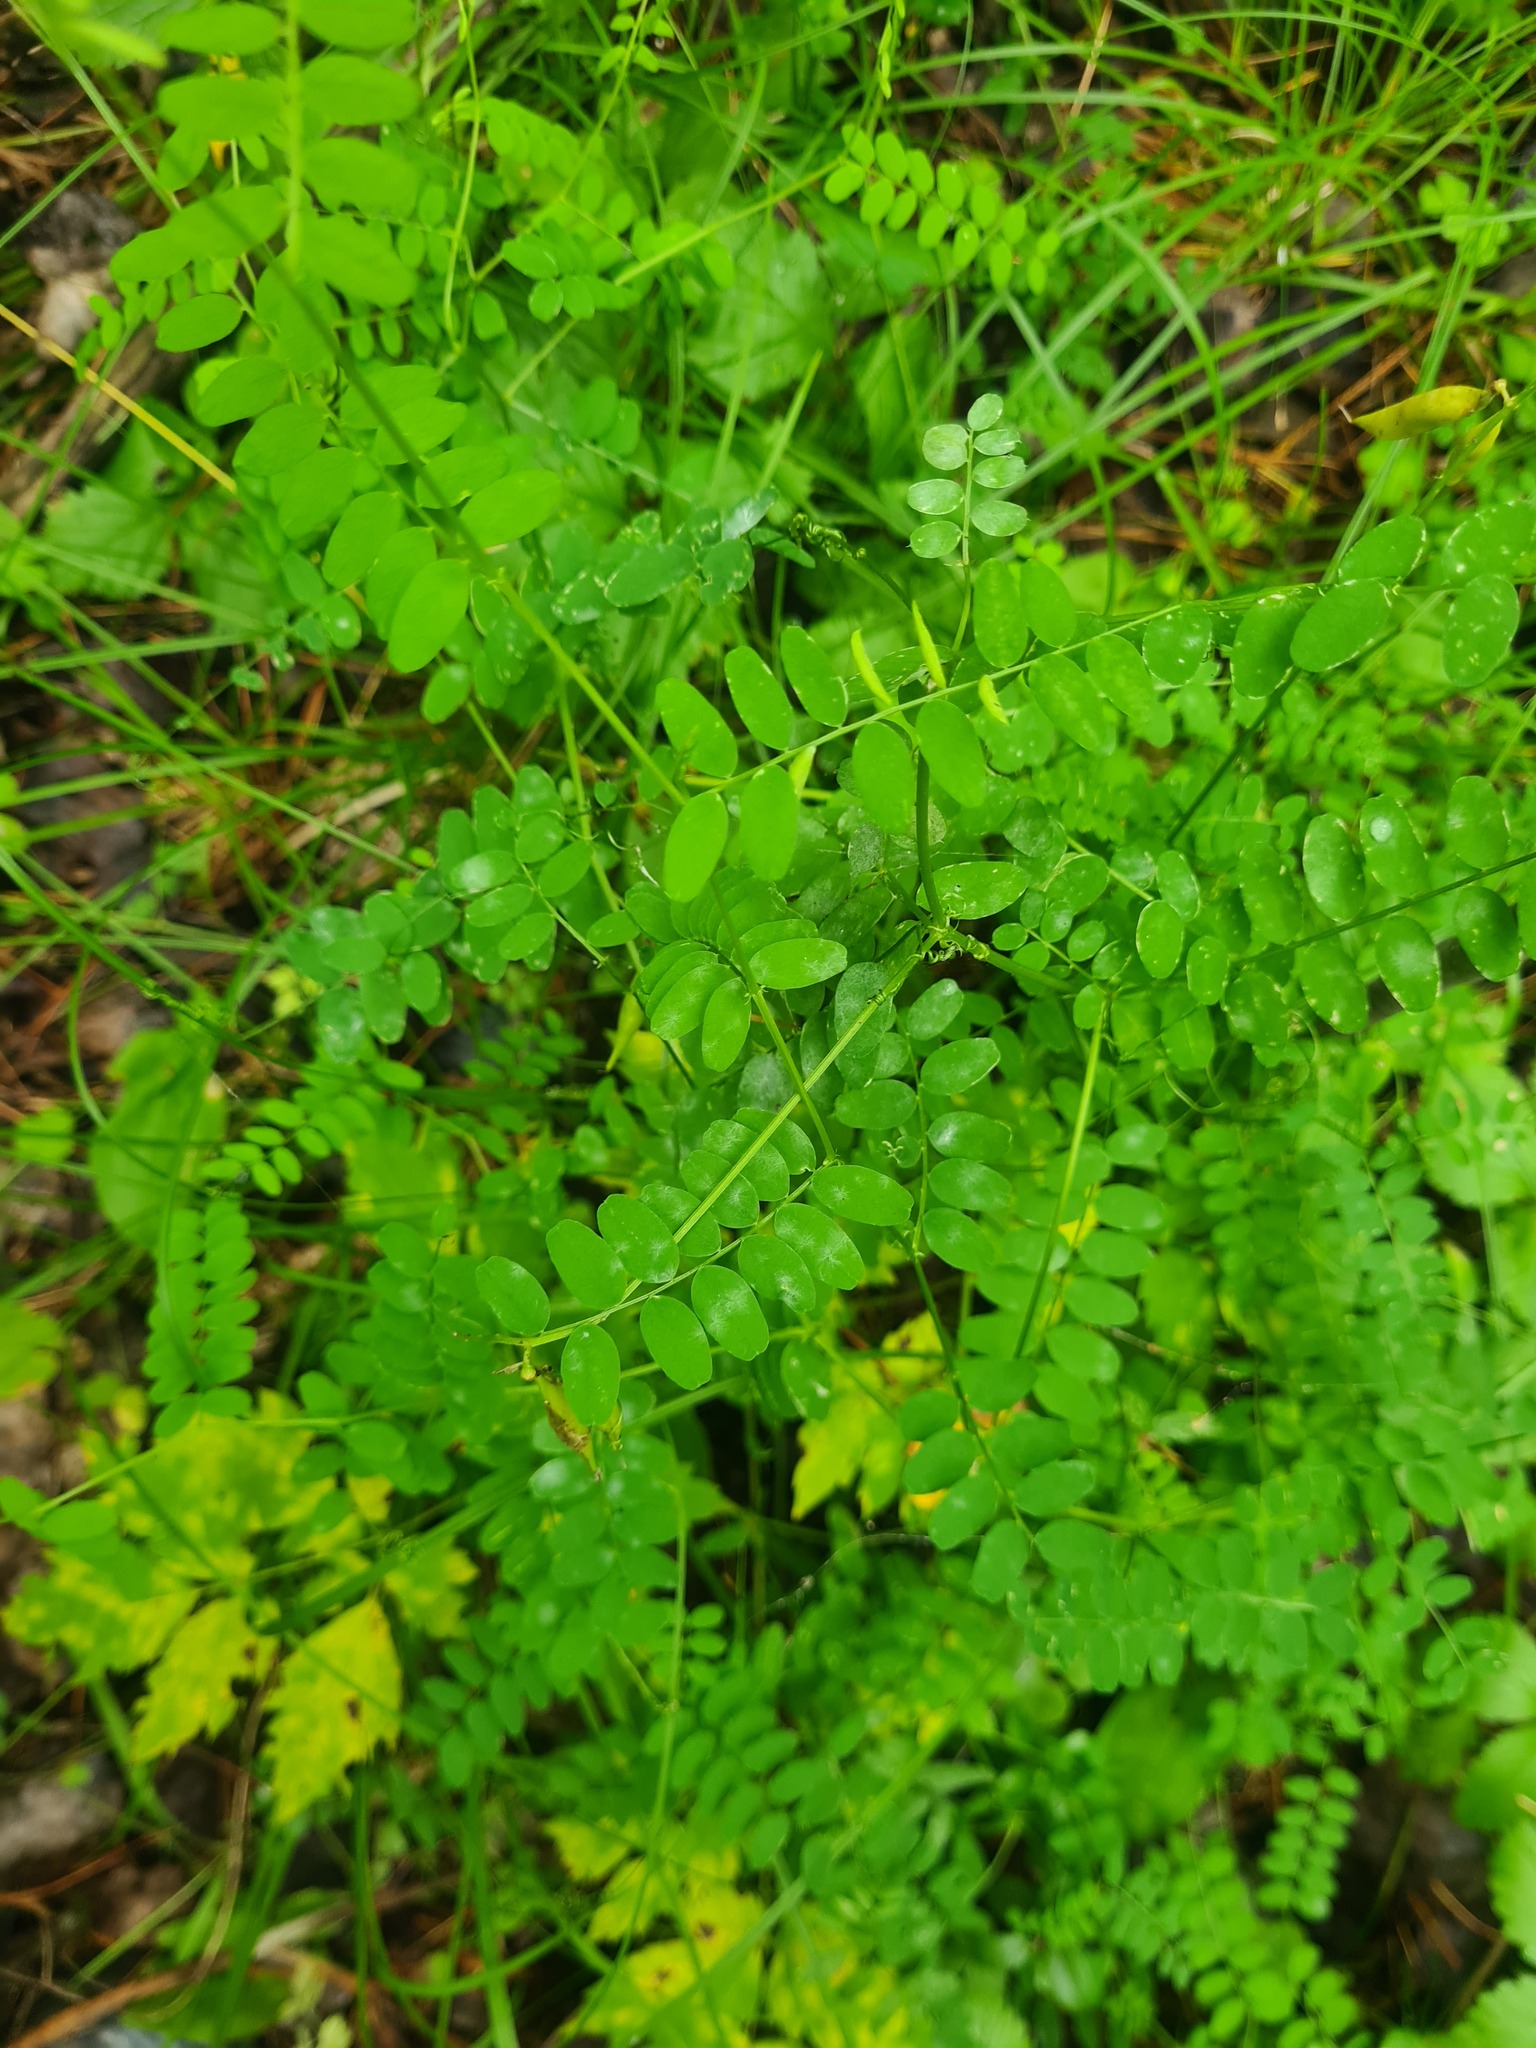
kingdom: Plantae
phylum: Tracheophyta
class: Magnoliopsida
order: Fabales
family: Fabaceae
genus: Vicia
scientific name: Vicia sylvatica
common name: Wood vetch
